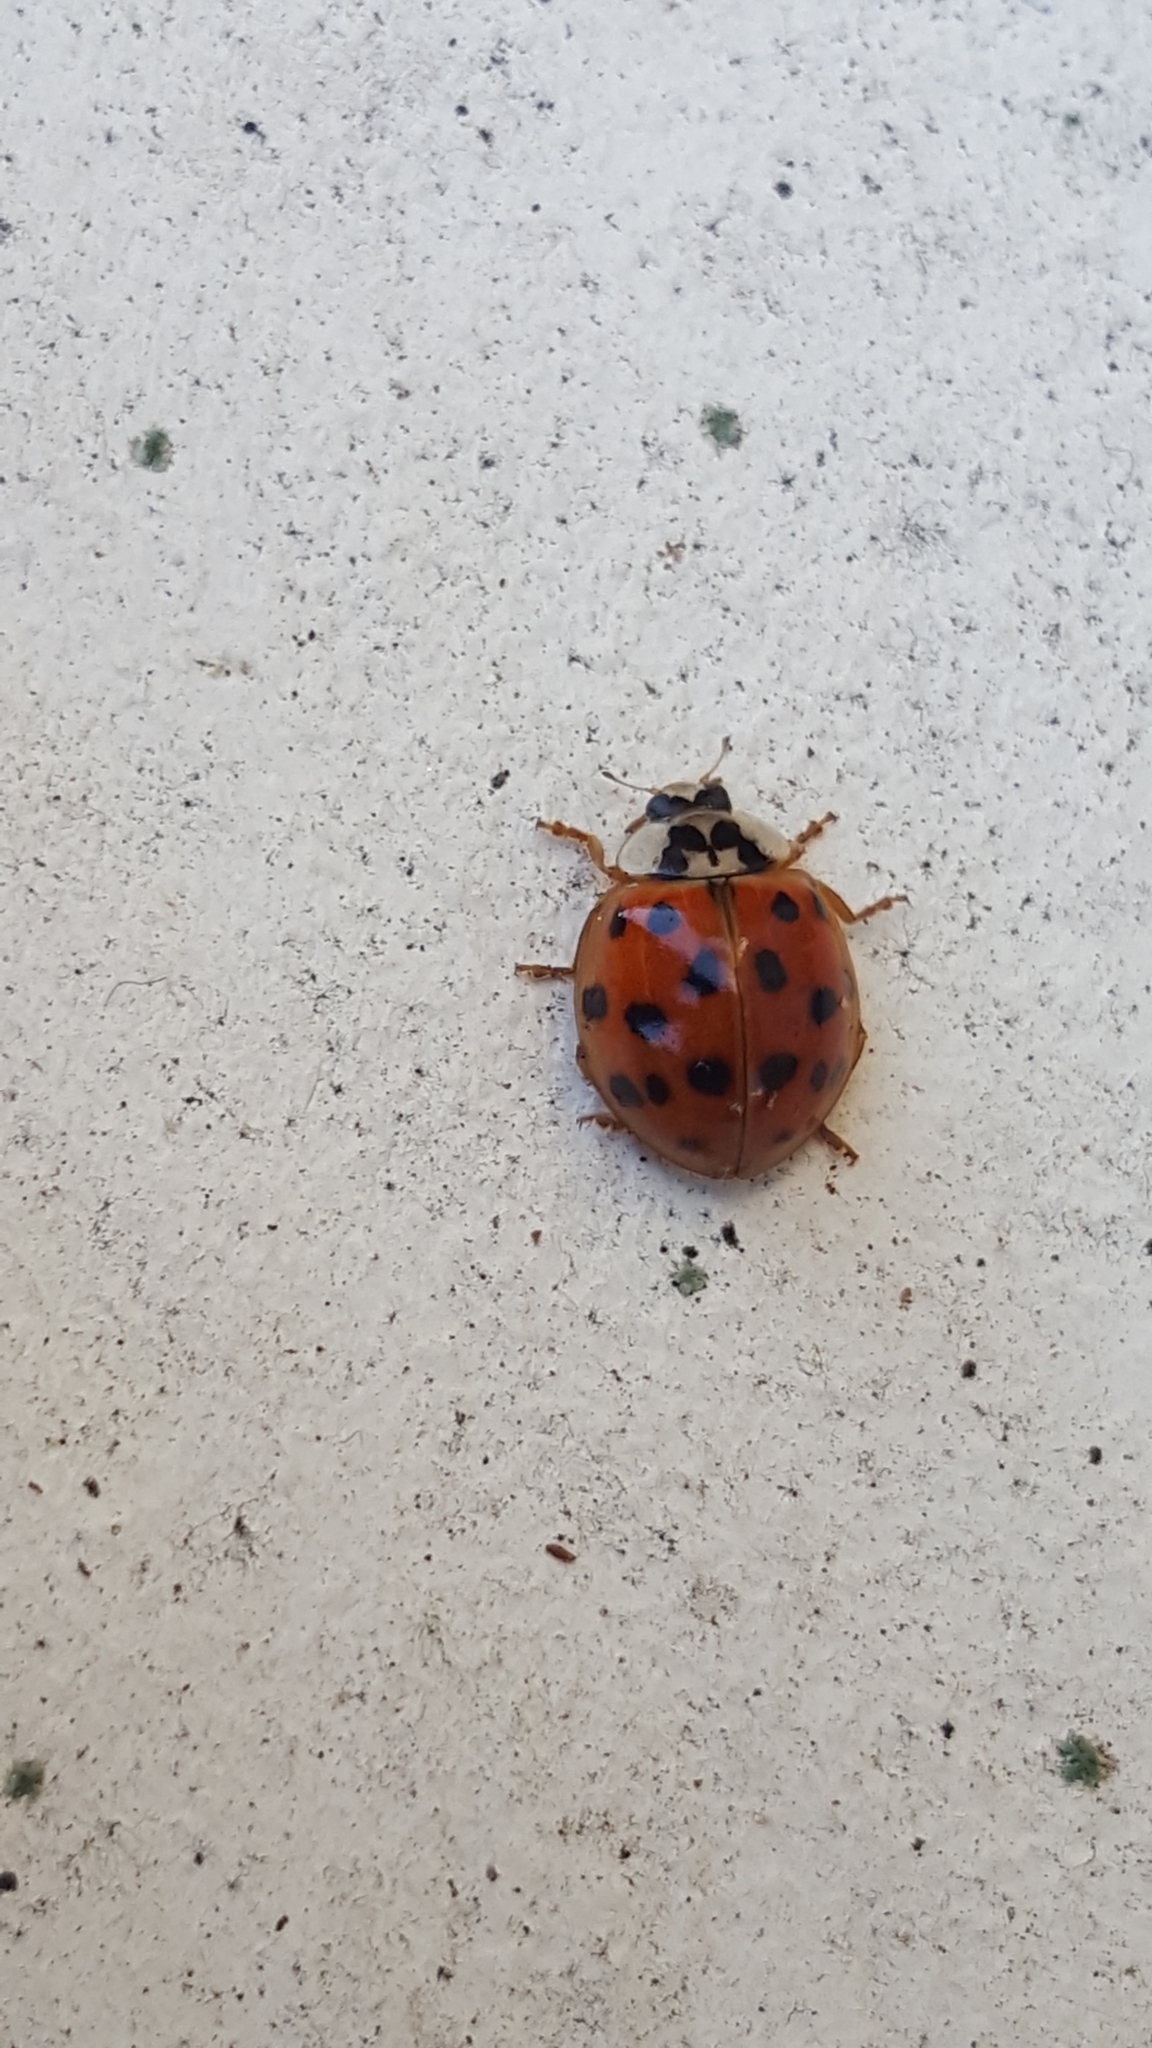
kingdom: Animalia
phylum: Arthropoda
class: Insecta
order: Coleoptera
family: Coccinellidae
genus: Harmonia
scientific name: Harmonia axyridis
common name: Harlequin ladybird
